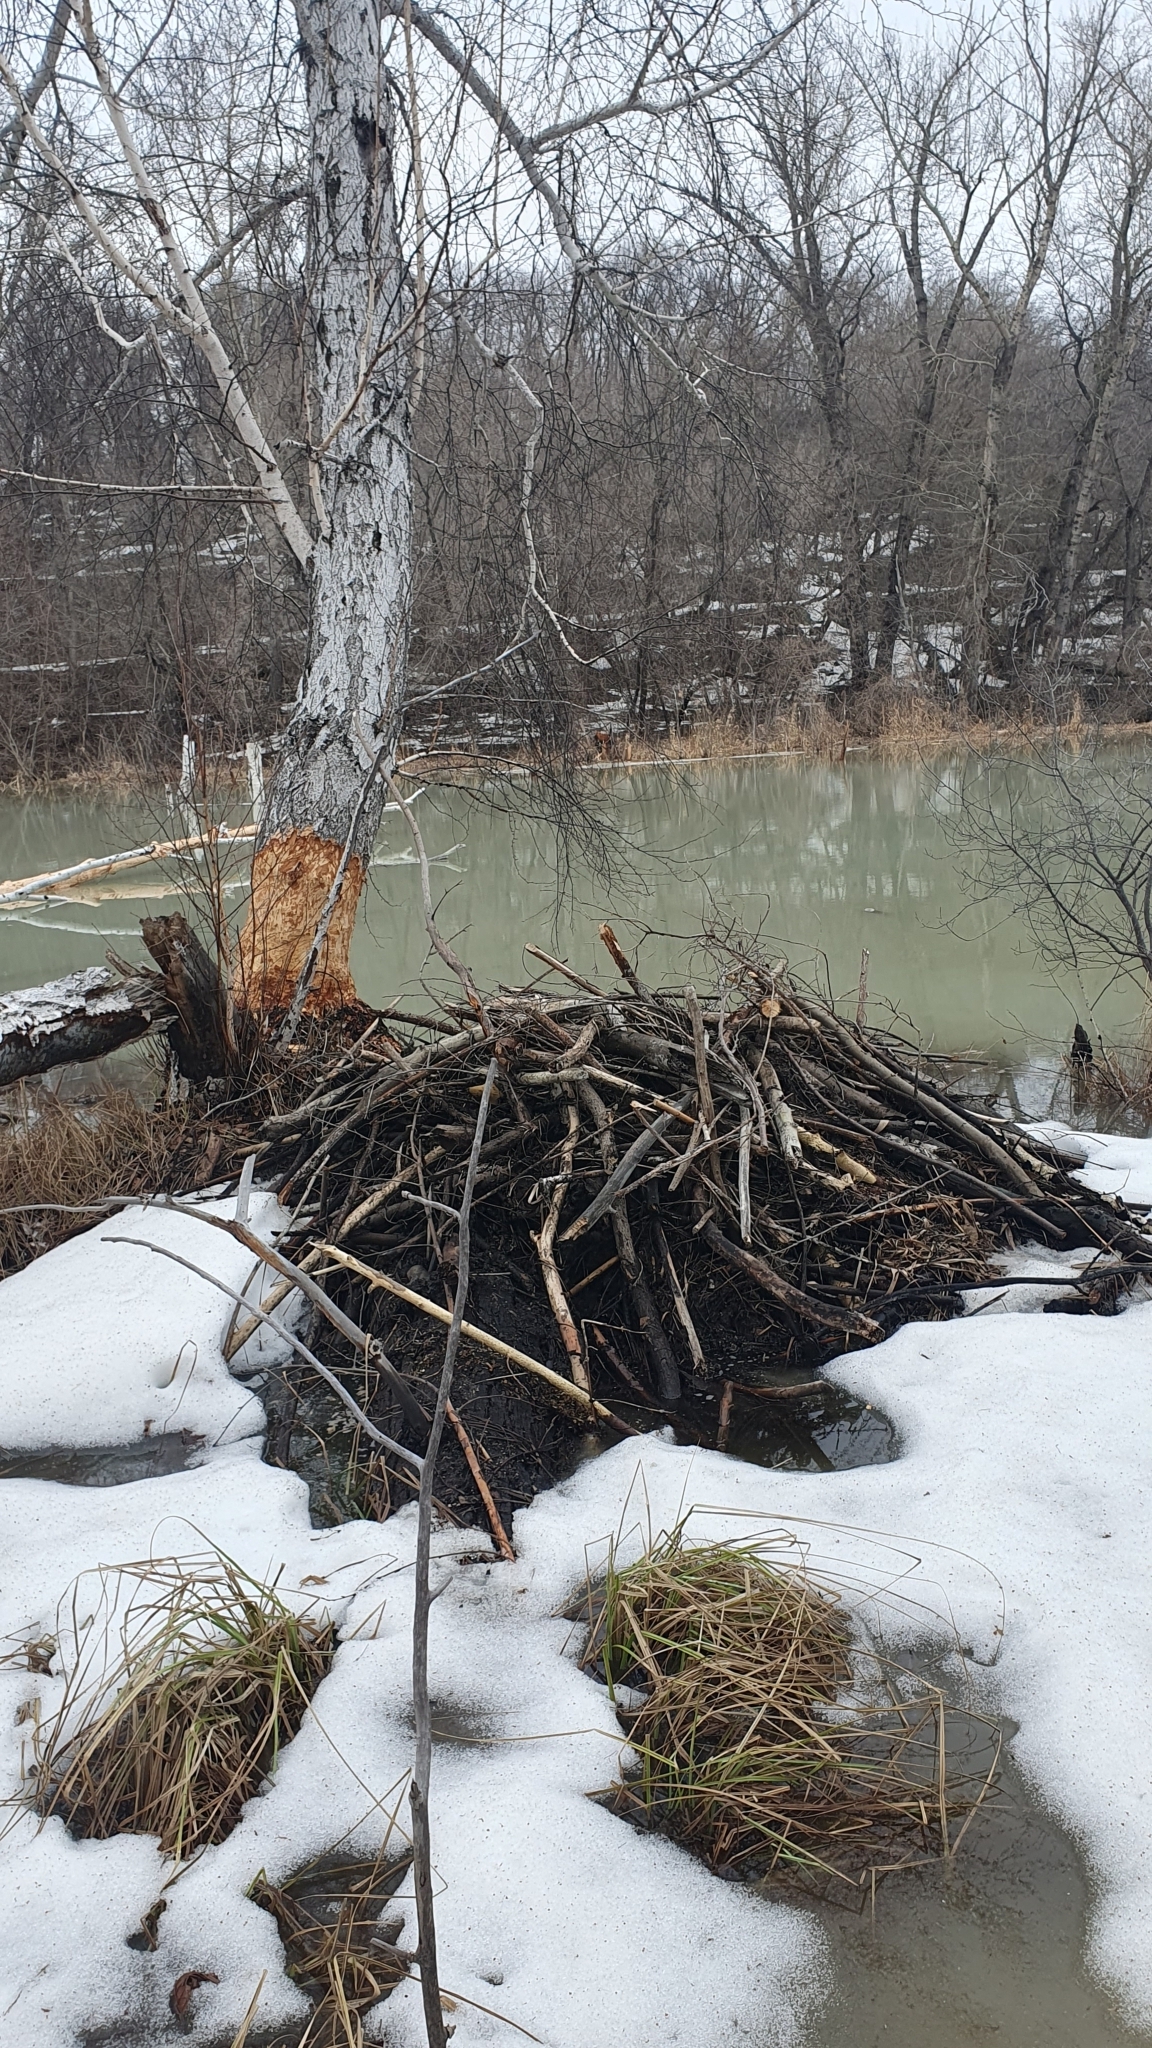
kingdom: Animalia
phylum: Chordata
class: Mammalia
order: Rodentia
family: Castoridae
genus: Castor
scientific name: Castor fiber
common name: Eurasian beaver
